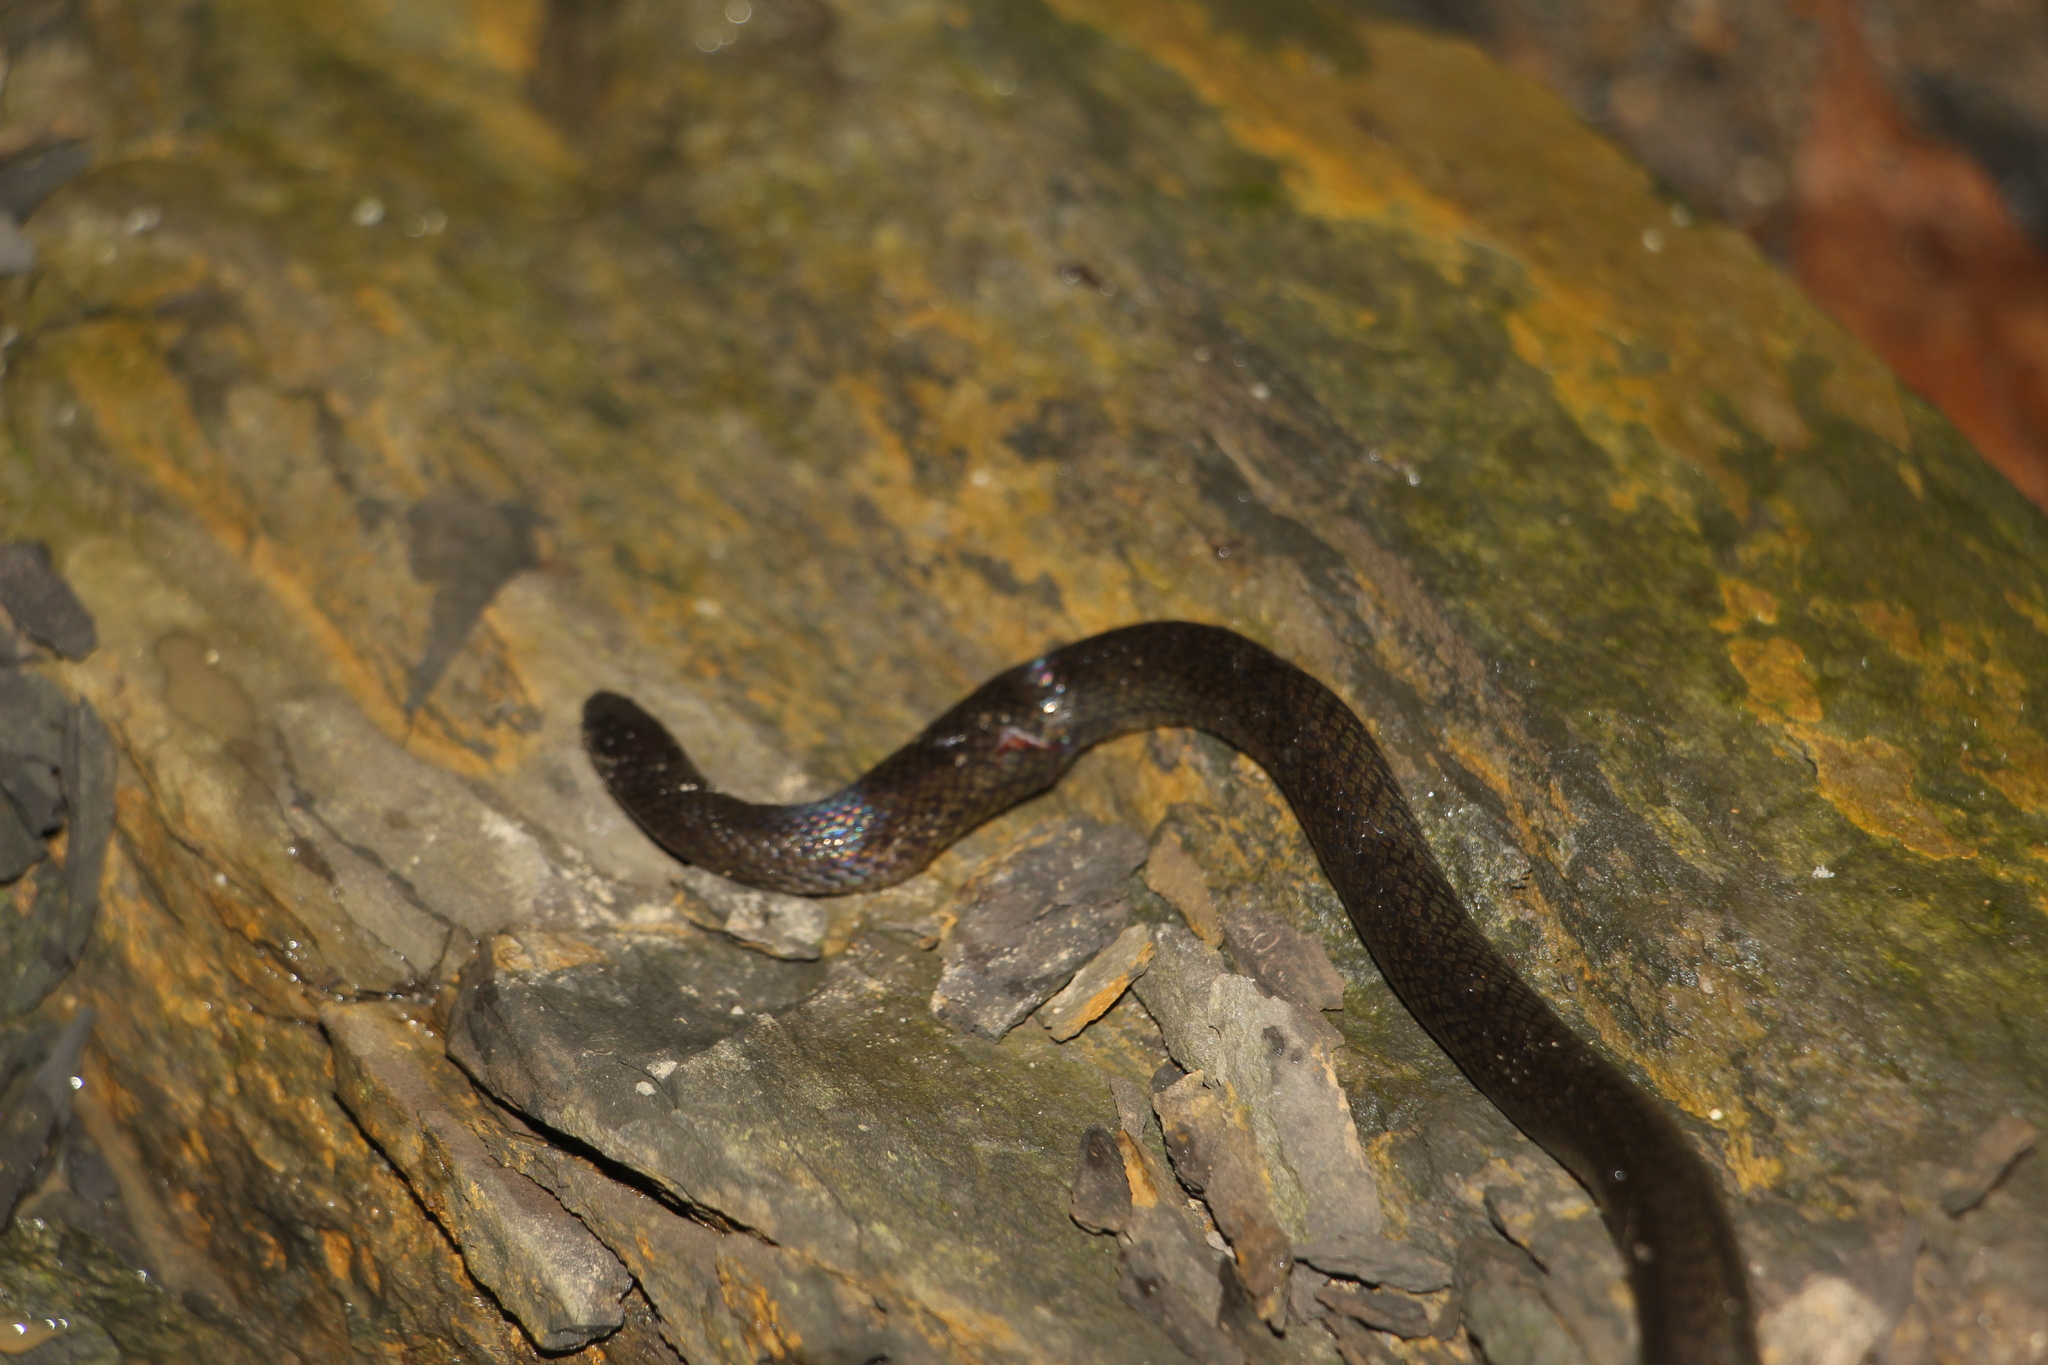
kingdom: Animalia
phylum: Chordata
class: Squamata
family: Colubridae
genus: Atractus
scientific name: Atractus werneri
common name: Werner's ground snake
